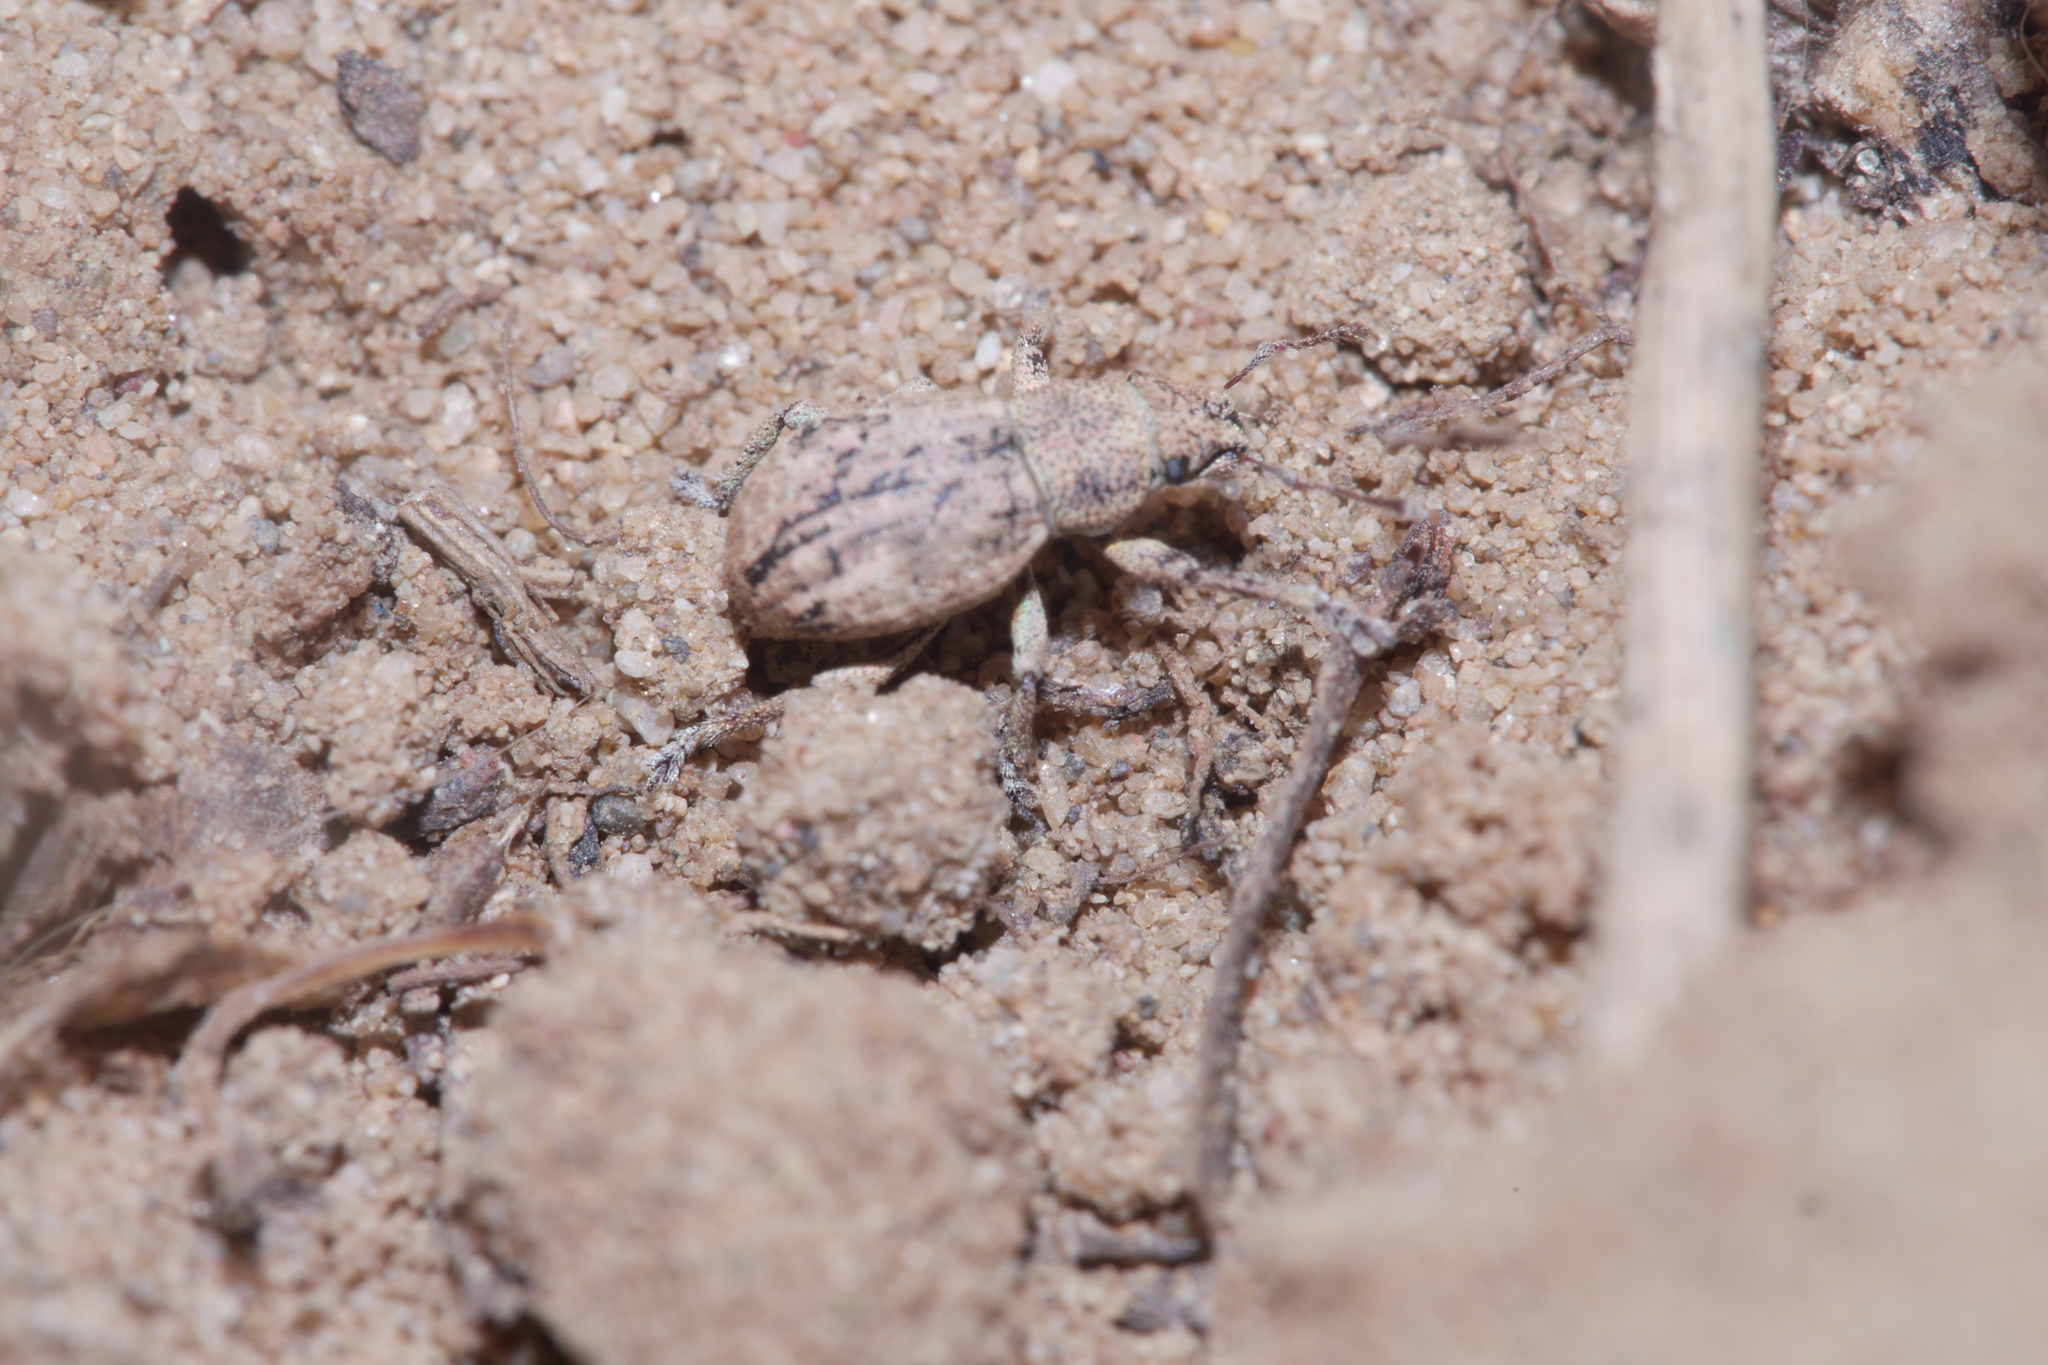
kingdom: Animalia
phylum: Arthropoda
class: Insecta
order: Coleoptera
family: Curculionidae
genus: Strophosoma
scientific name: Strophosoma capitatum
